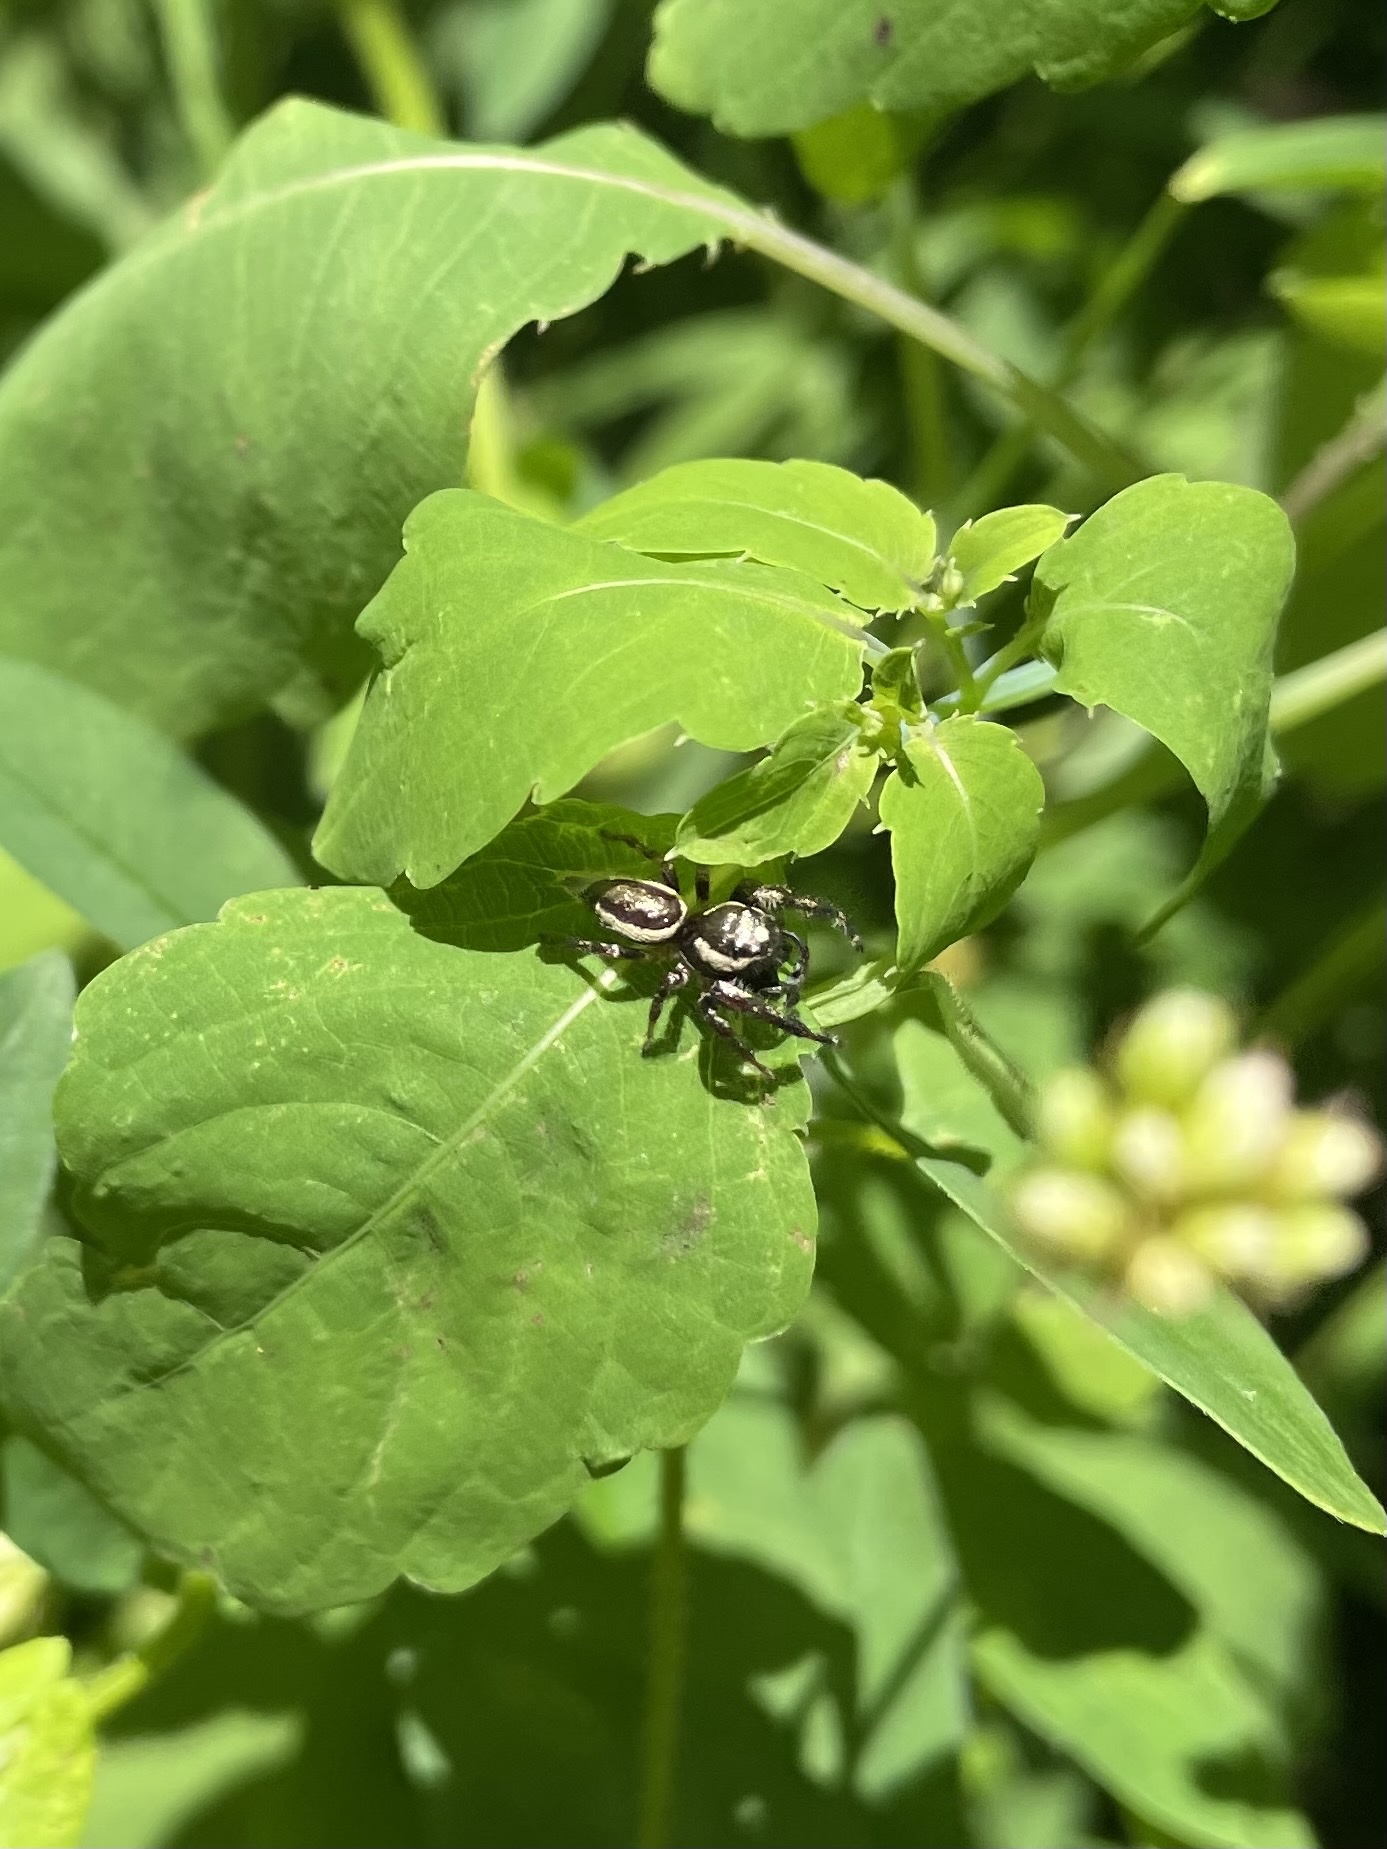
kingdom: Animalia
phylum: Arthropoda
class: Arachnida
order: Araneae
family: Salticidae
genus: Eris
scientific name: Eris militaris
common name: Bronze jumper
